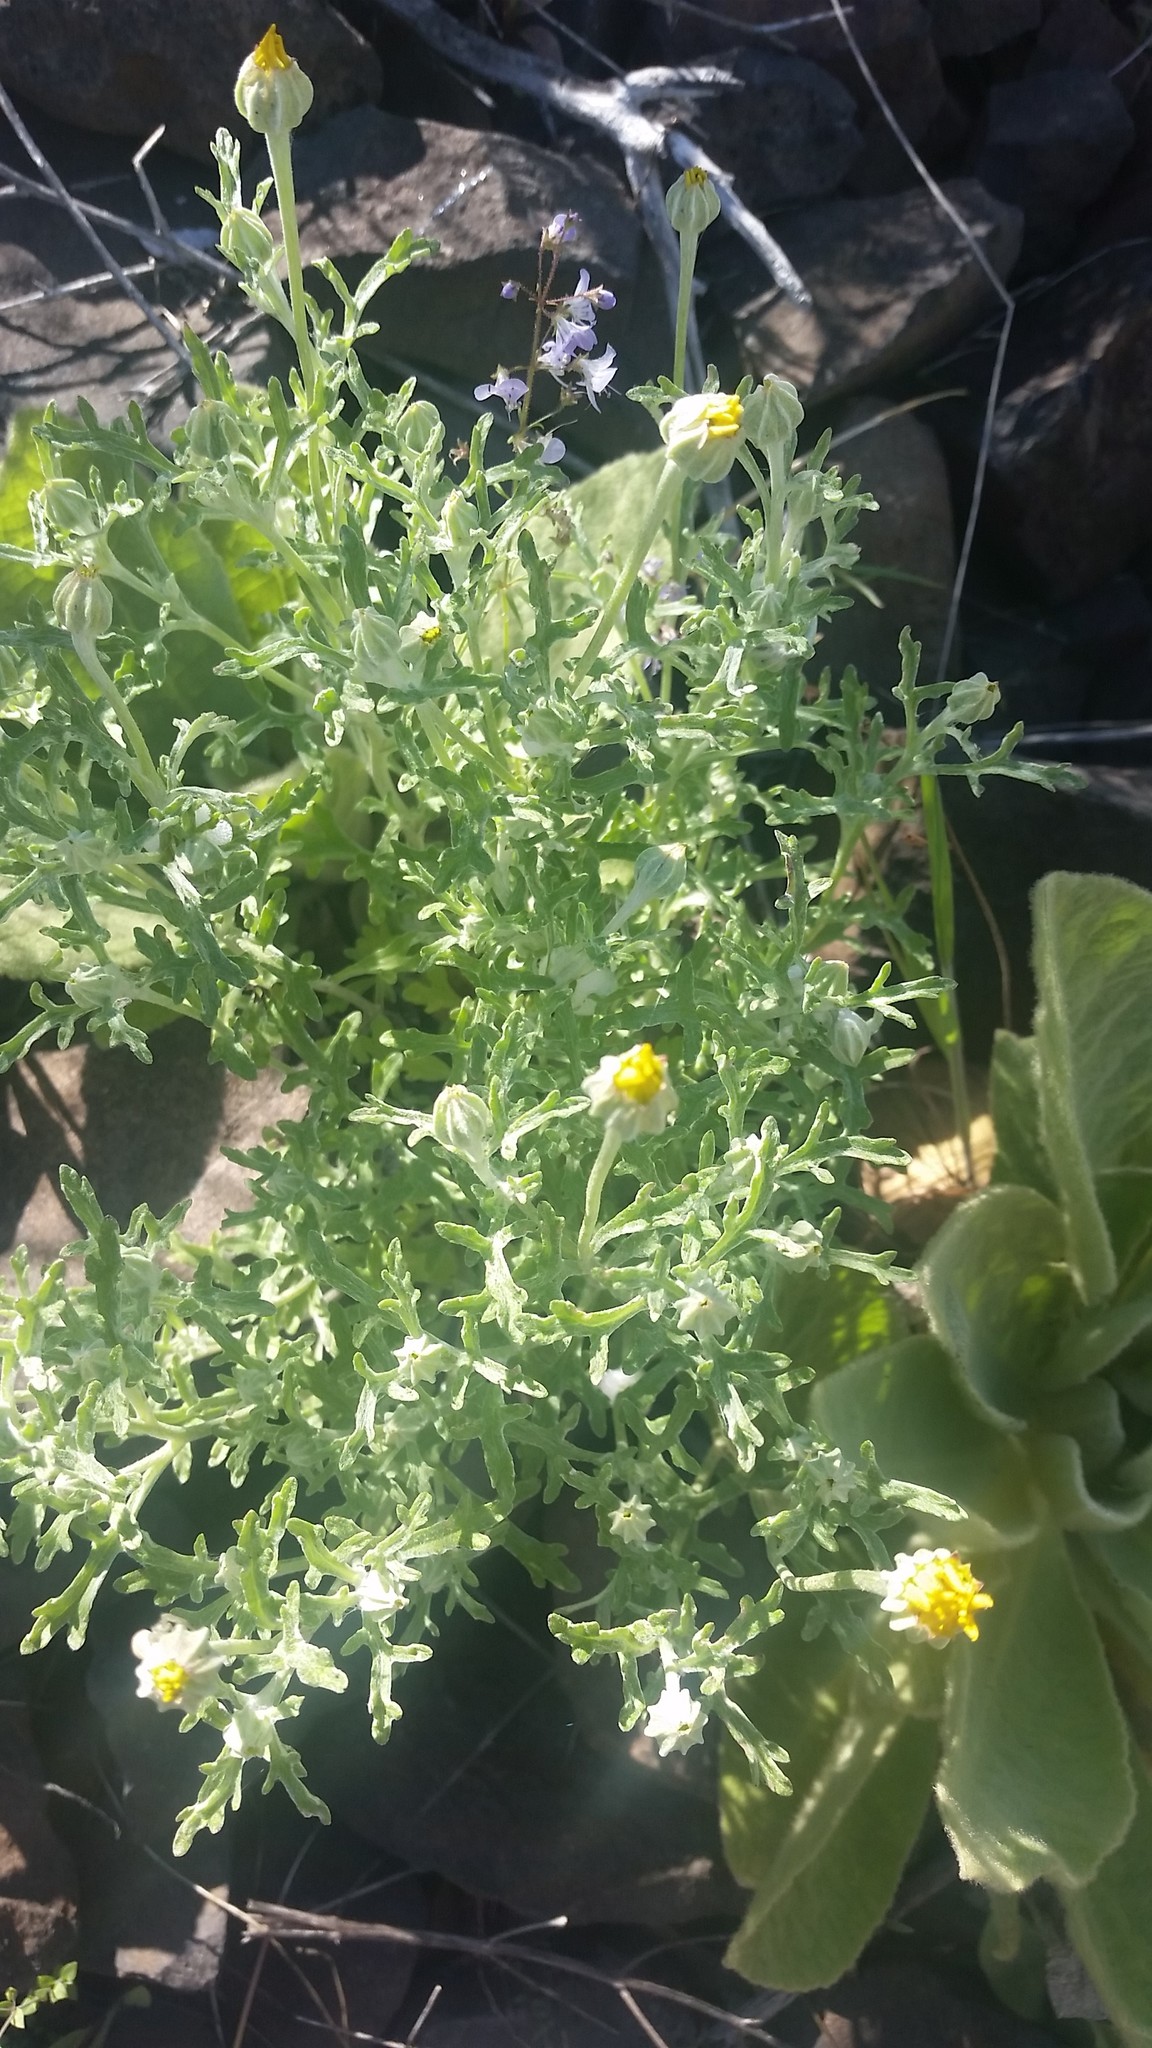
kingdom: Plantae
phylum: Tracheophyta
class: Magnoliopsida
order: Asterales
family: Asteraceae
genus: Eriophyllum
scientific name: Eriophyllum lanatum
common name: Common woolly-sunflower
